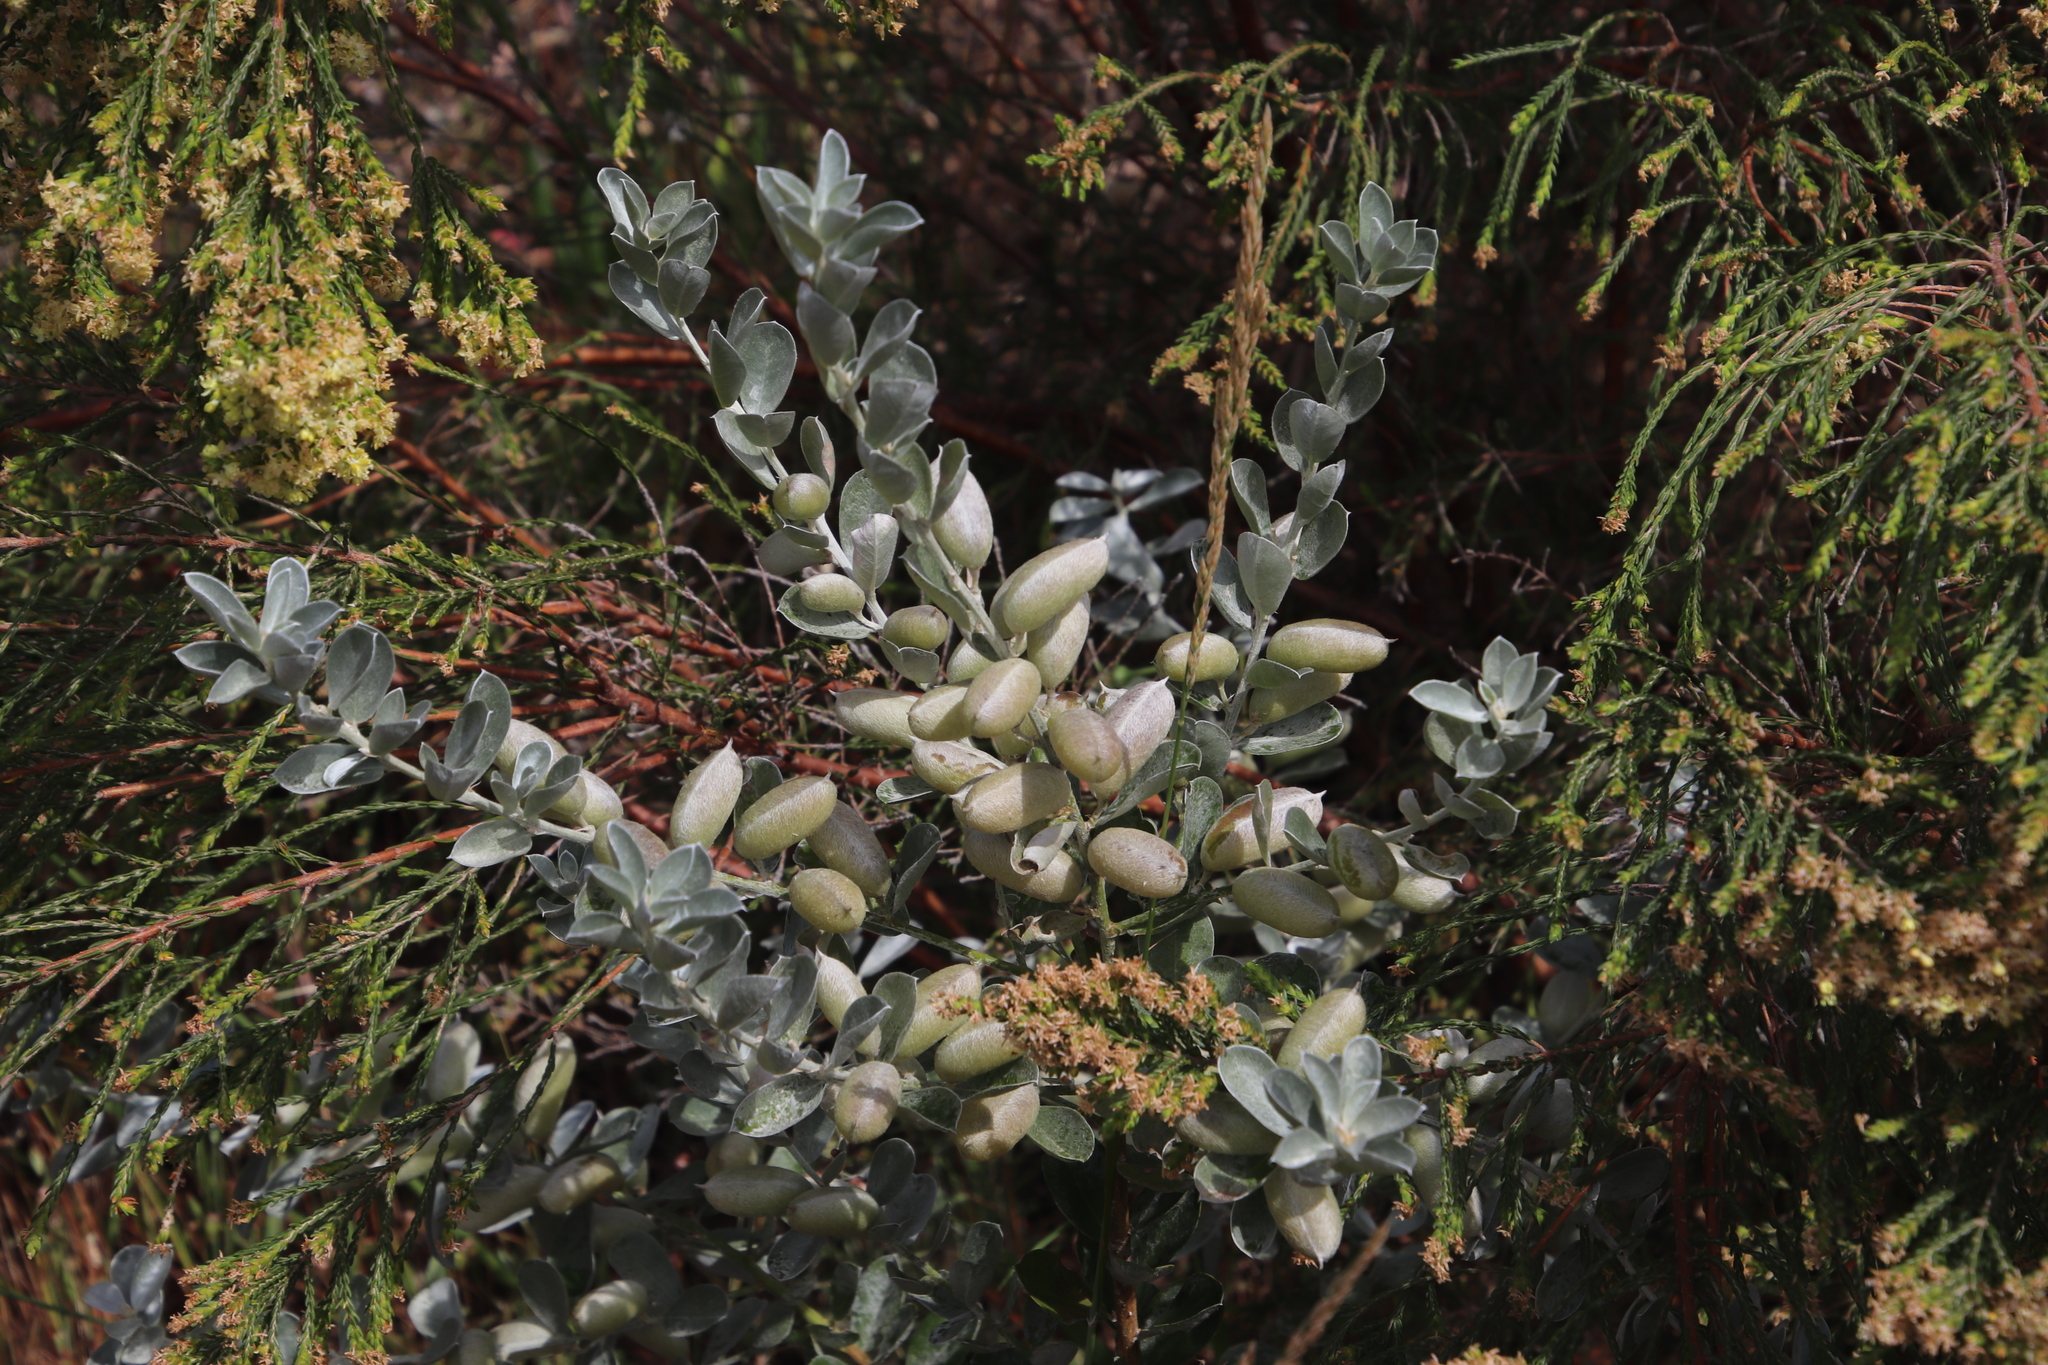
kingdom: Plantae
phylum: Tracheophyta
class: Magnoliopsida
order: Fabales
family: Fabaceae
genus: Podalyria
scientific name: Podalyria sericea
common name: Silver podalyria
